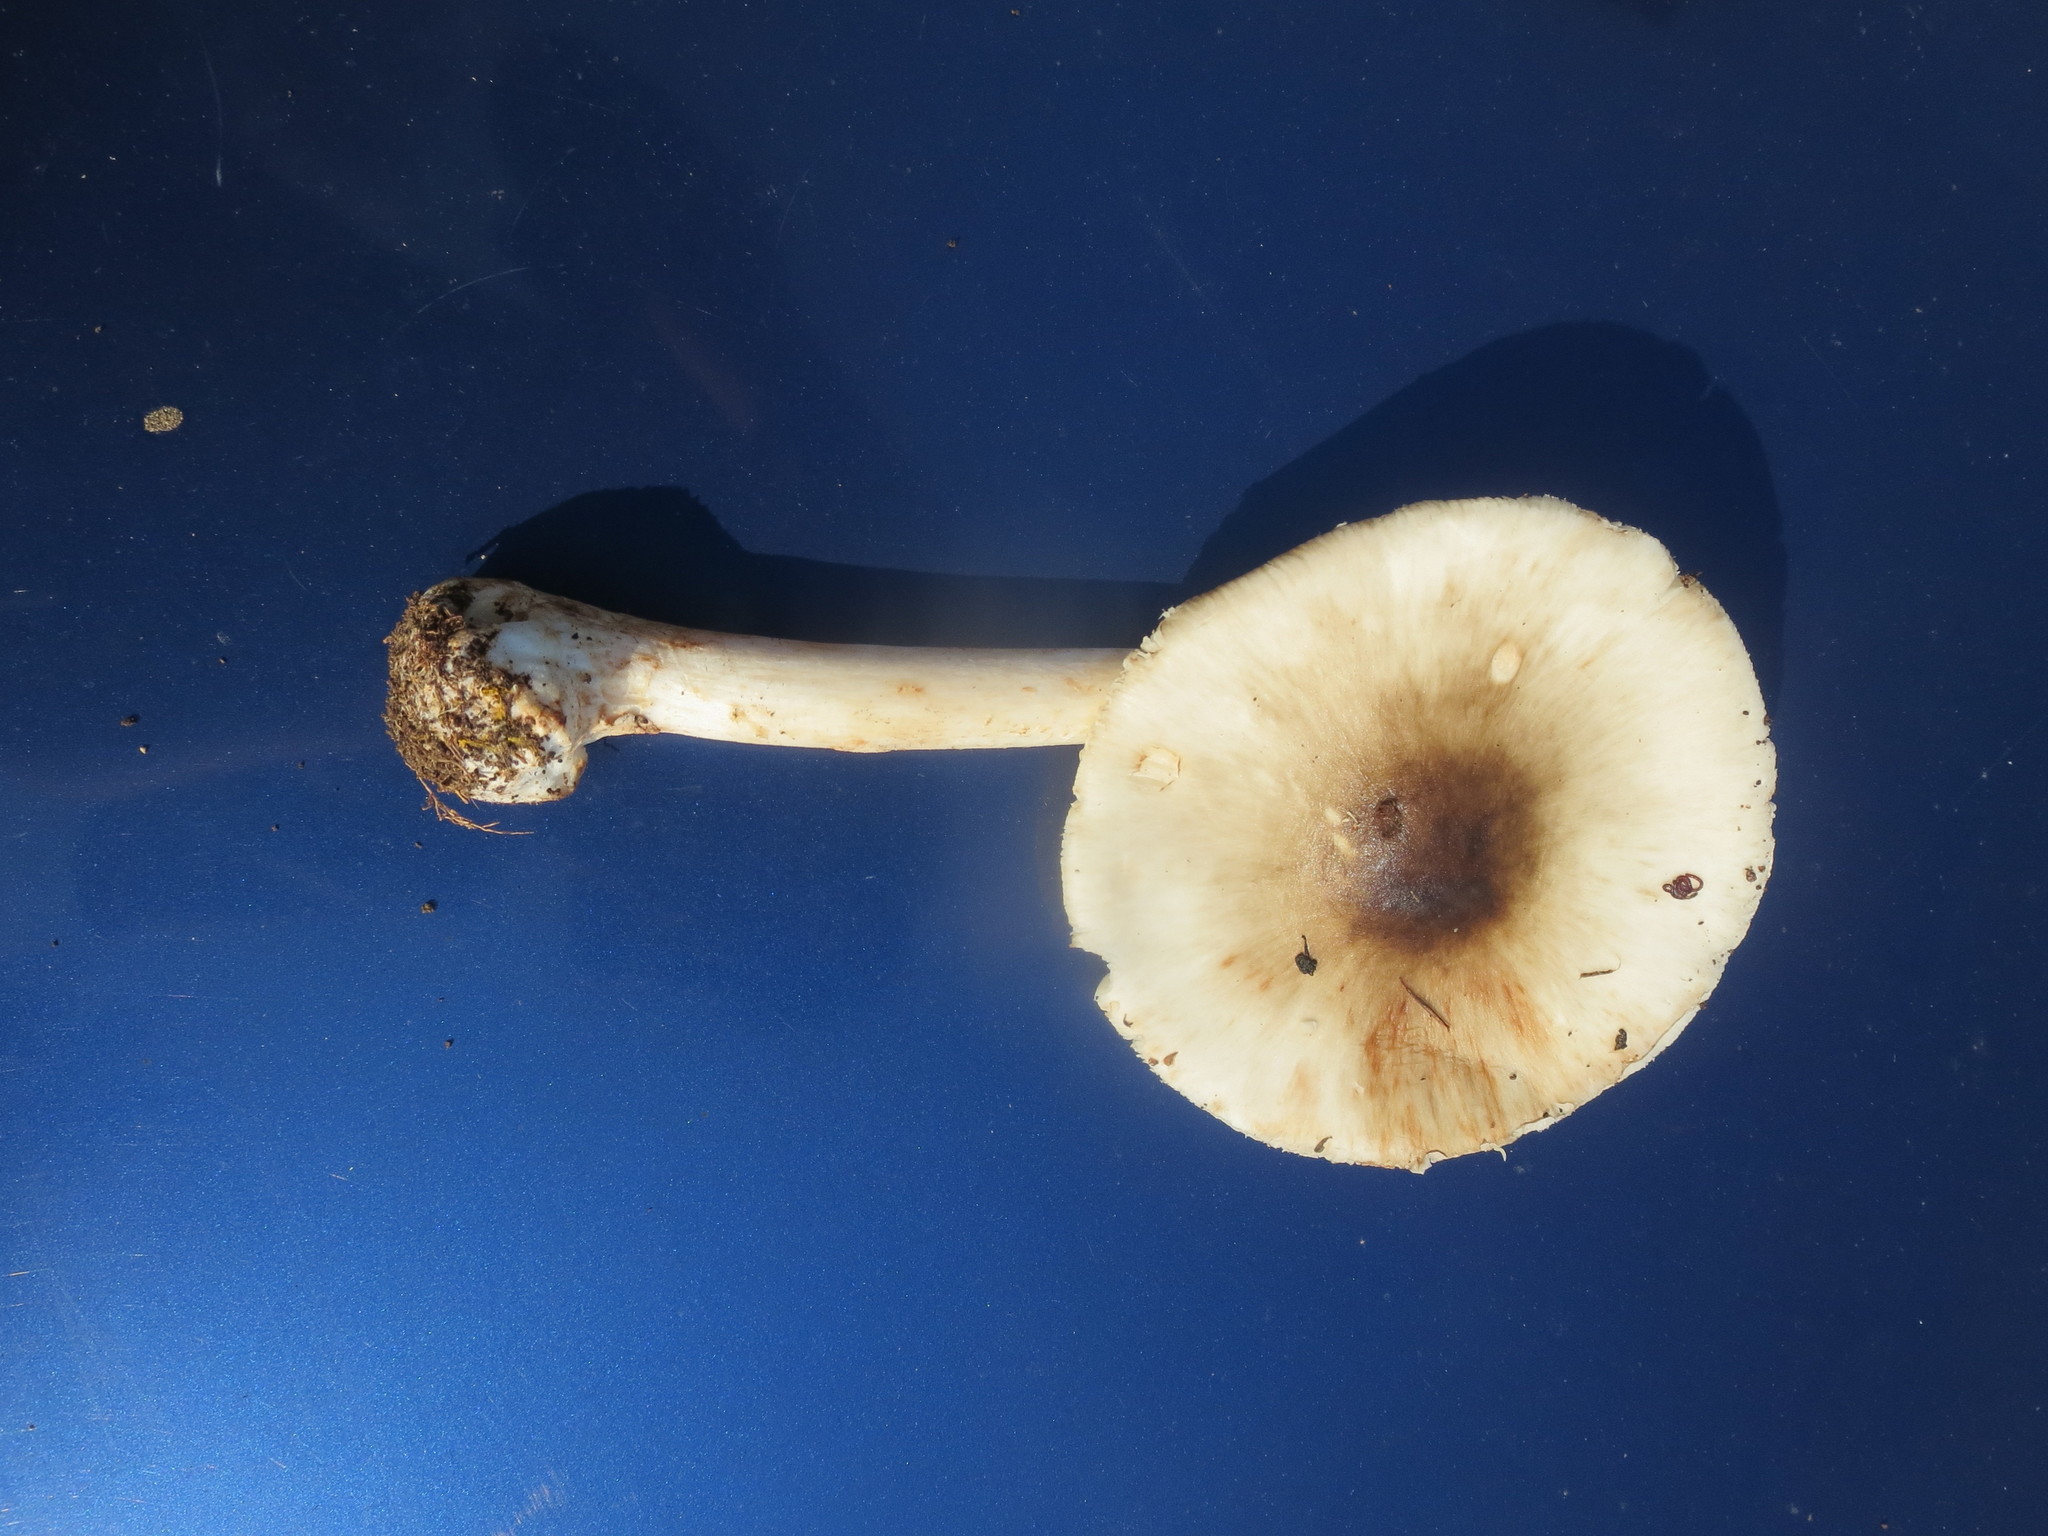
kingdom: Fungi
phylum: Basidiomycota
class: Agaricomycetes
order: Agaricales
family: Amanitaceae
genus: Amanita
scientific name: Amanita brunnescens
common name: Brown american star-footed amanita
